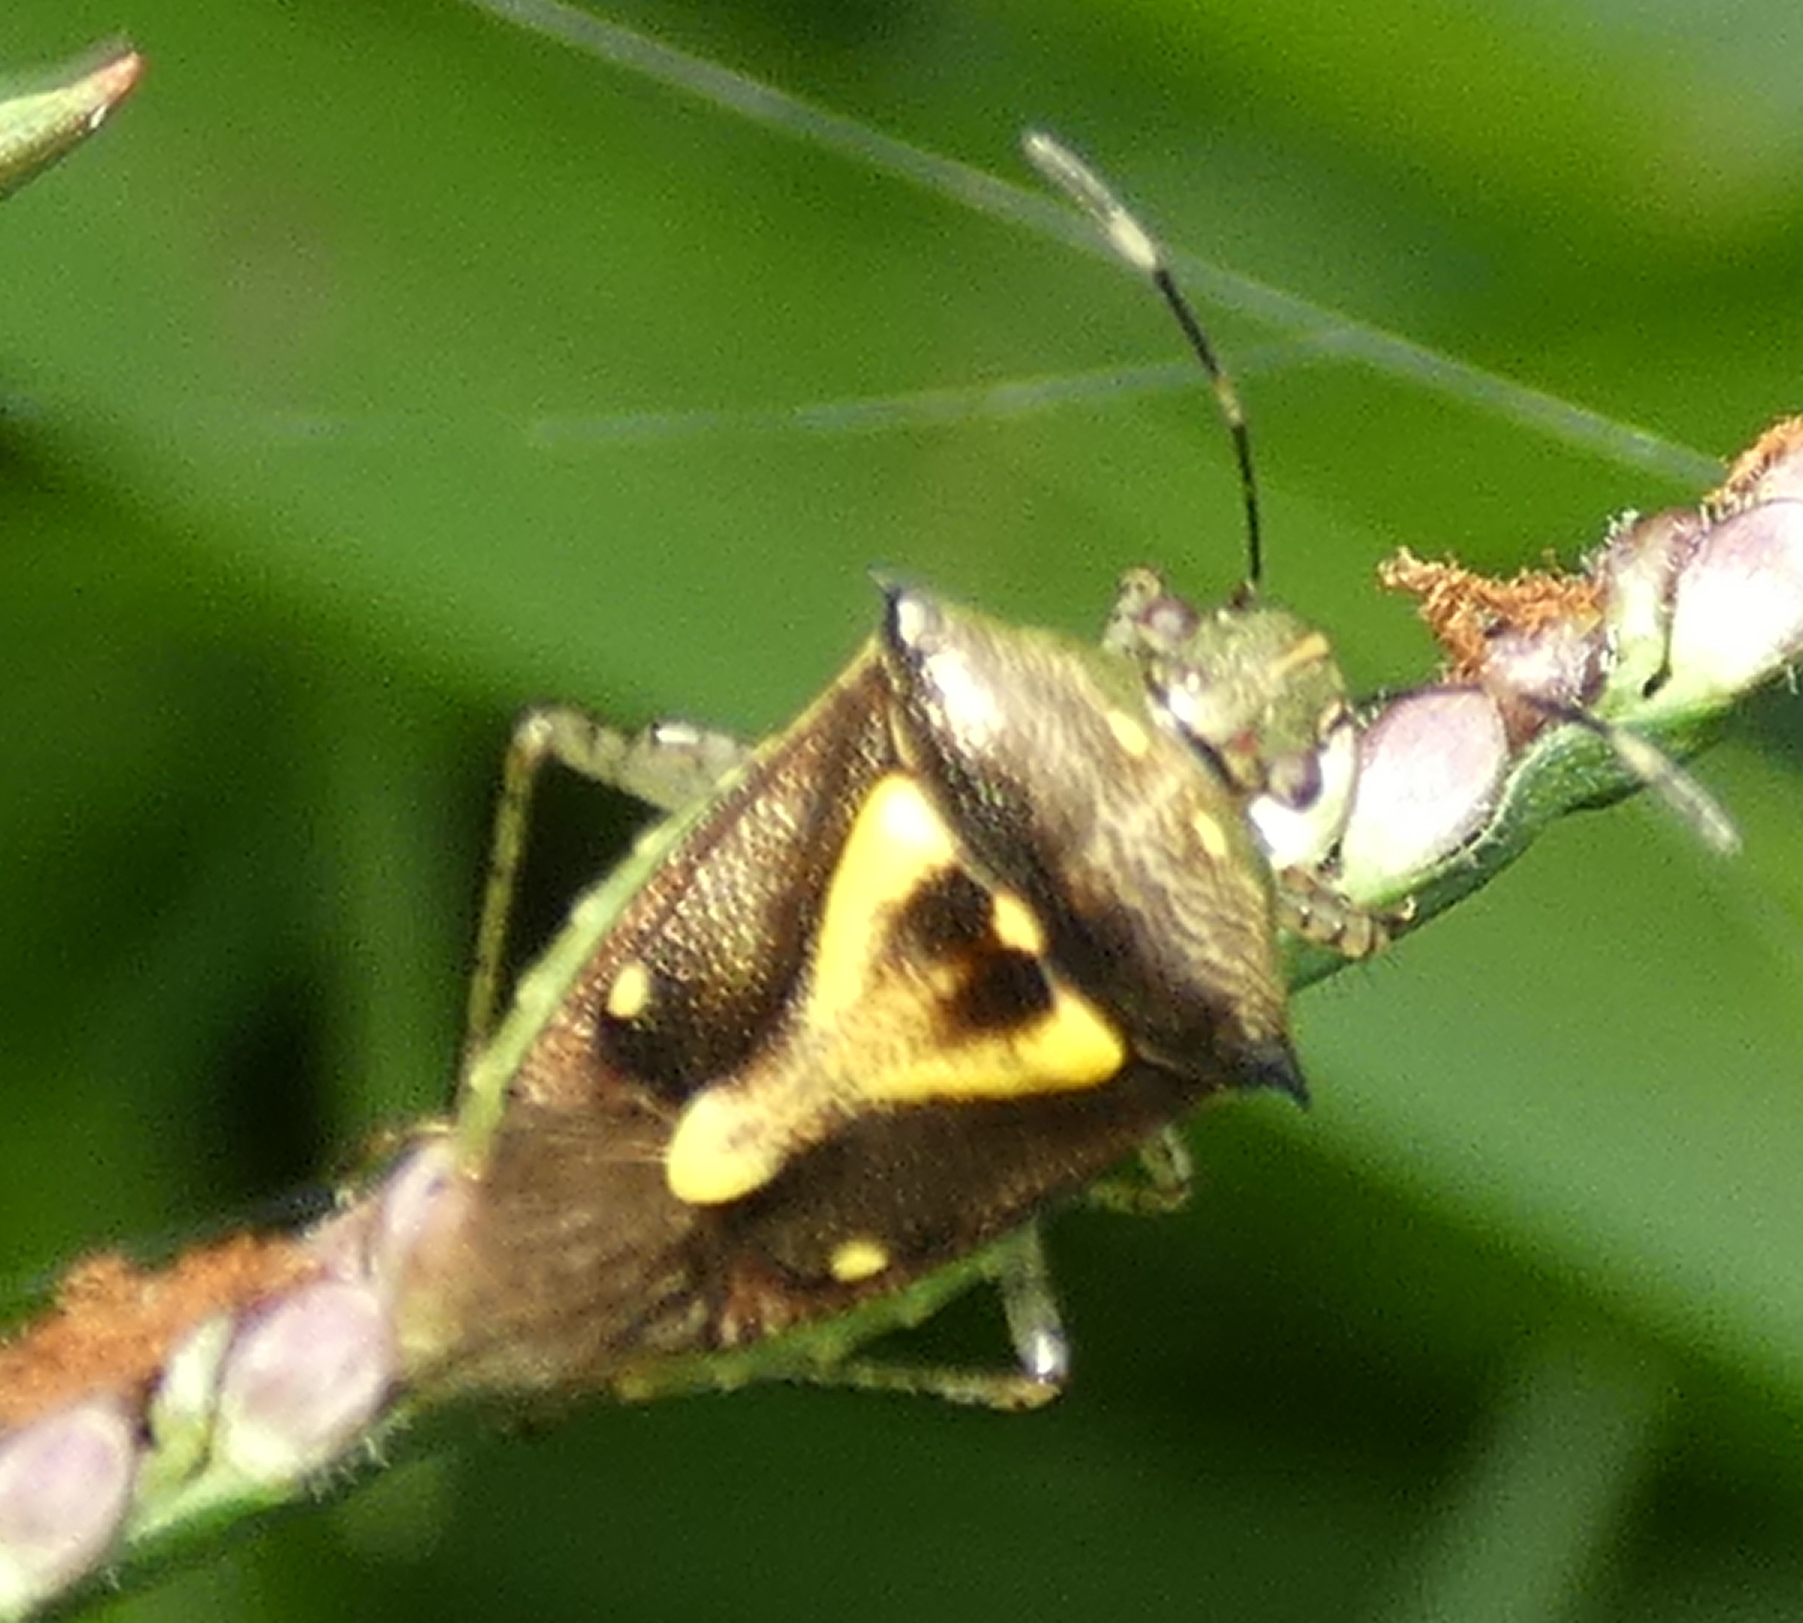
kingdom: Animalia
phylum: Arthropoda
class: Insecta
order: Hemiptera
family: Pentatomidae
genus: Mormidea
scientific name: Mormidea ypsilon
